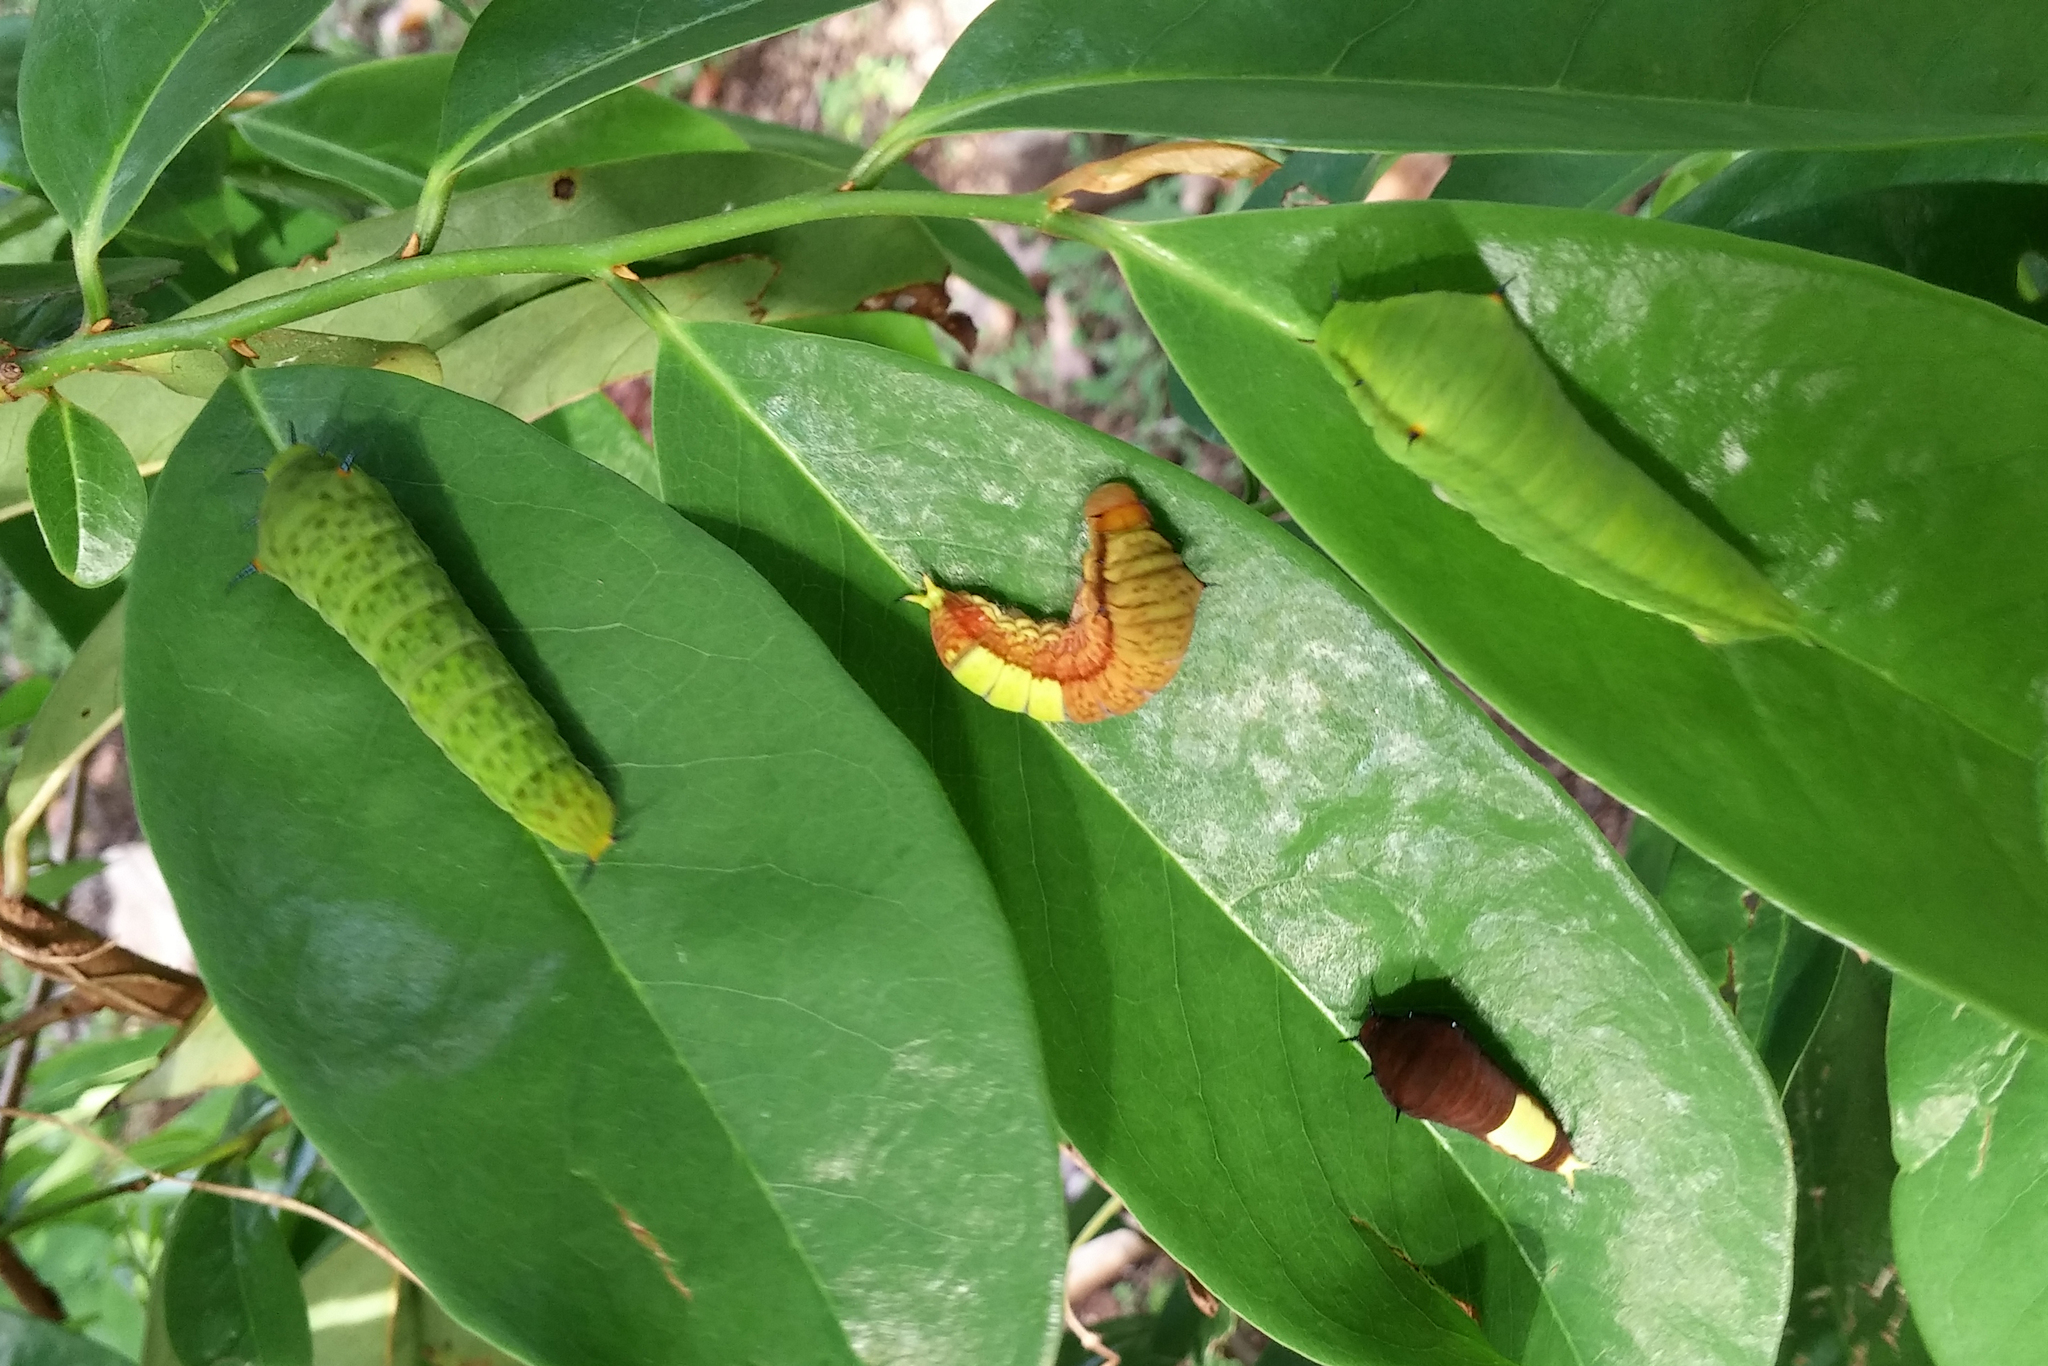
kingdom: Animalia
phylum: Arthropoda
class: Insecta
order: Lepidoptera
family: Papilionidae
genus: Graphium
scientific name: Graphium agamemnon
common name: Tailed jay
